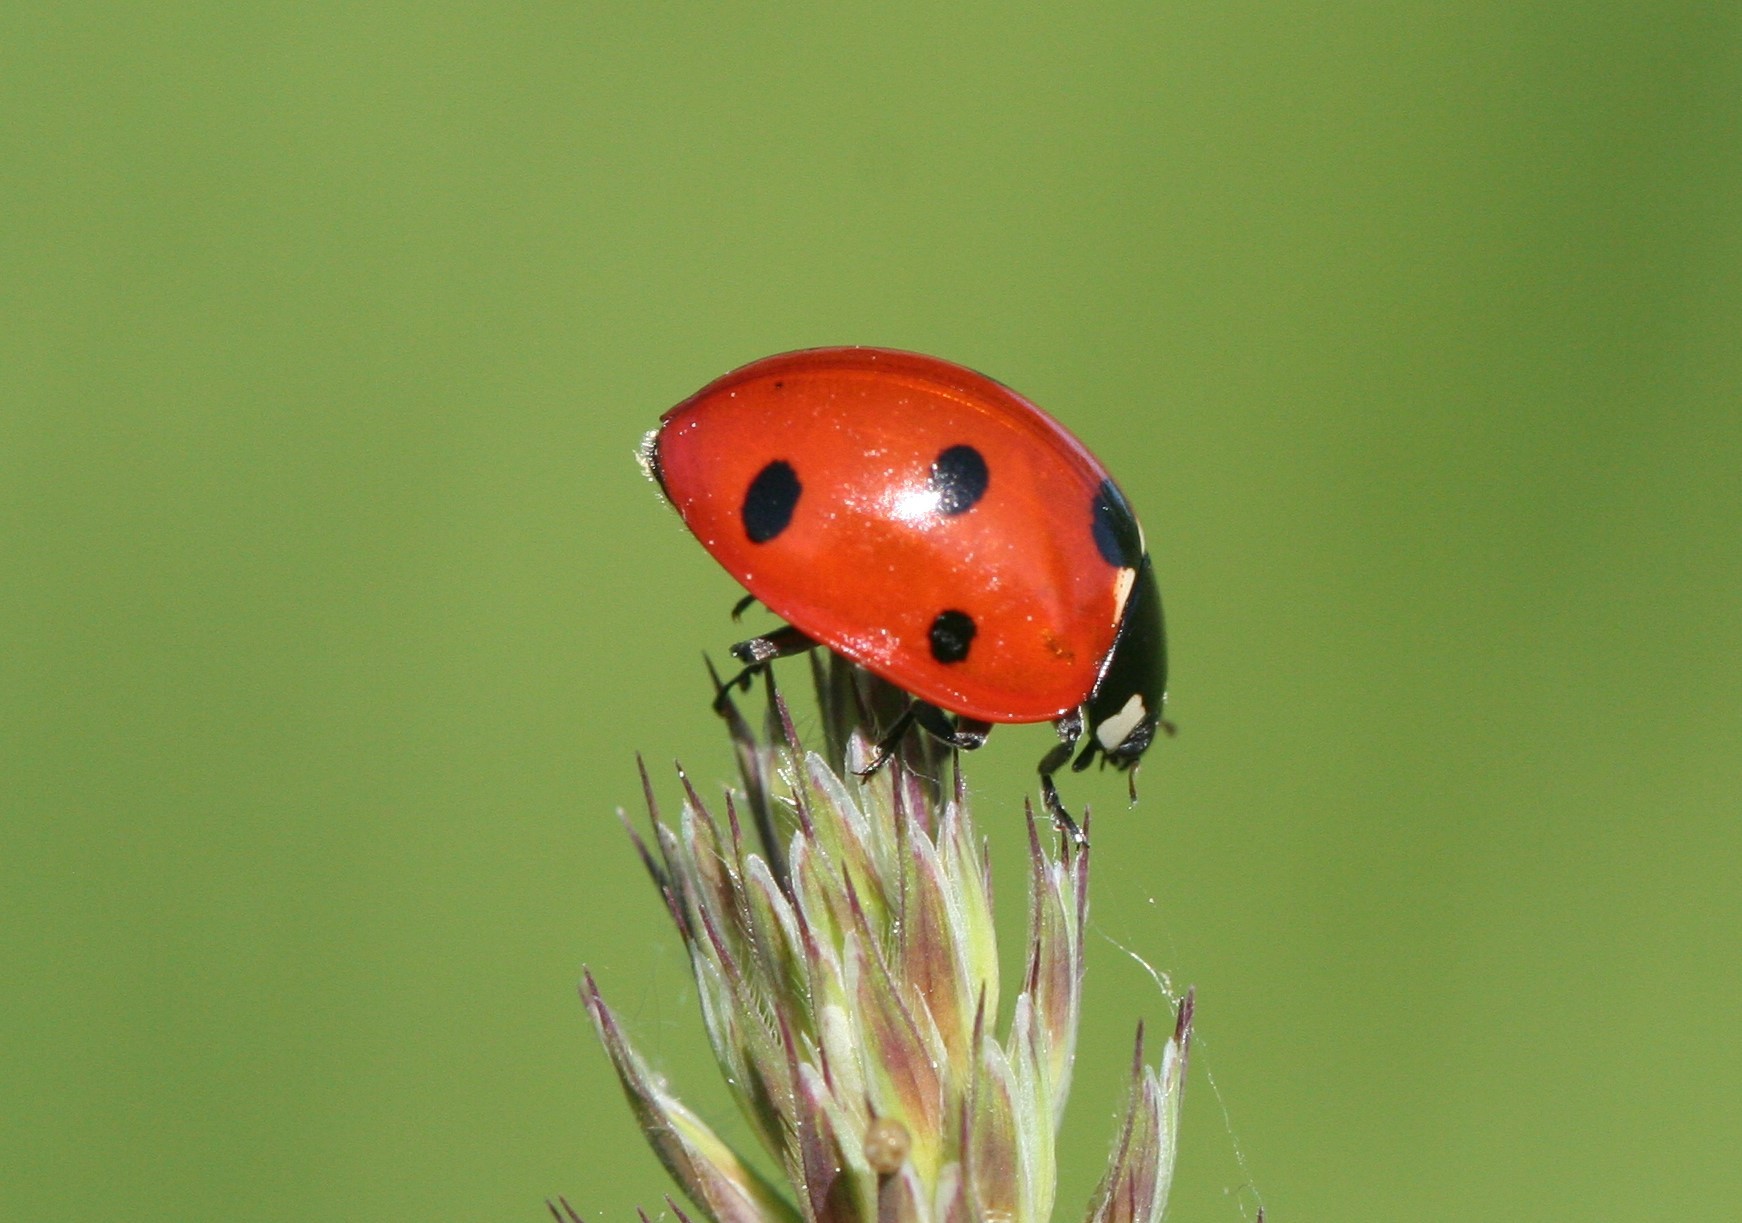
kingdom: Animalia
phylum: Arthropoda
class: Insecta
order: Coleoptera
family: Coccinellidae
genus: Coccinella
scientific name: Coccinella septempunctata
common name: Sevenspotted lady beetle
